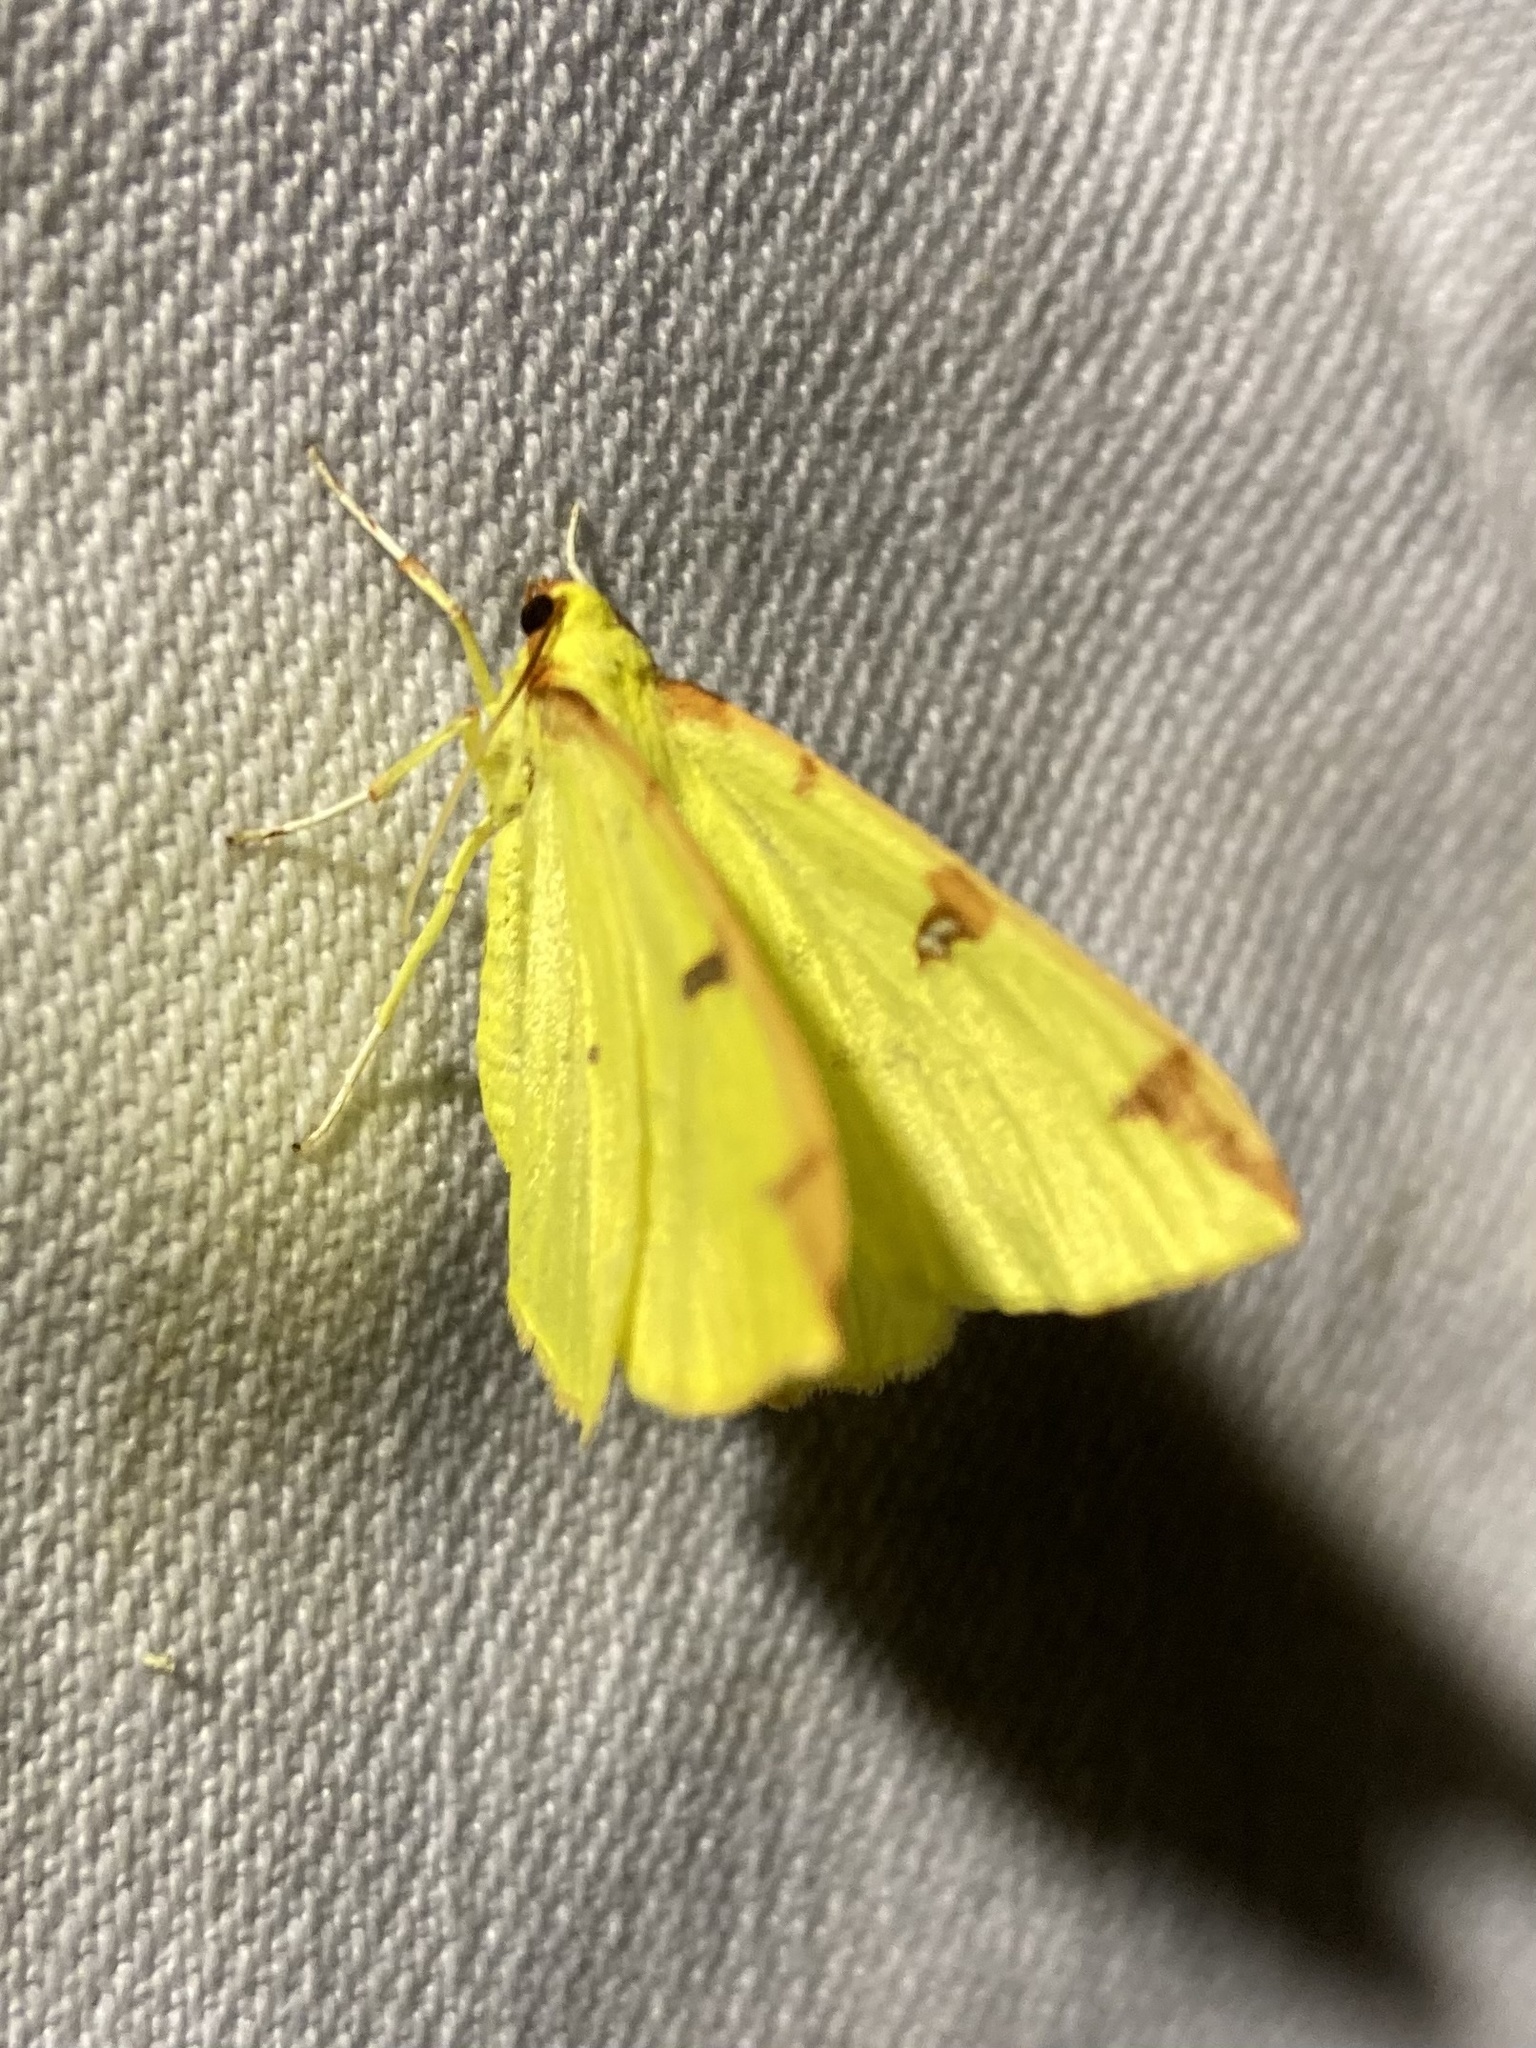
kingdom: Animalia
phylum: Arthropoda
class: Insecta
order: Lepidoptera
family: Geometridae
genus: Opisthograptis
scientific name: Opisthograptis luteolata
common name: Brimstone moth
